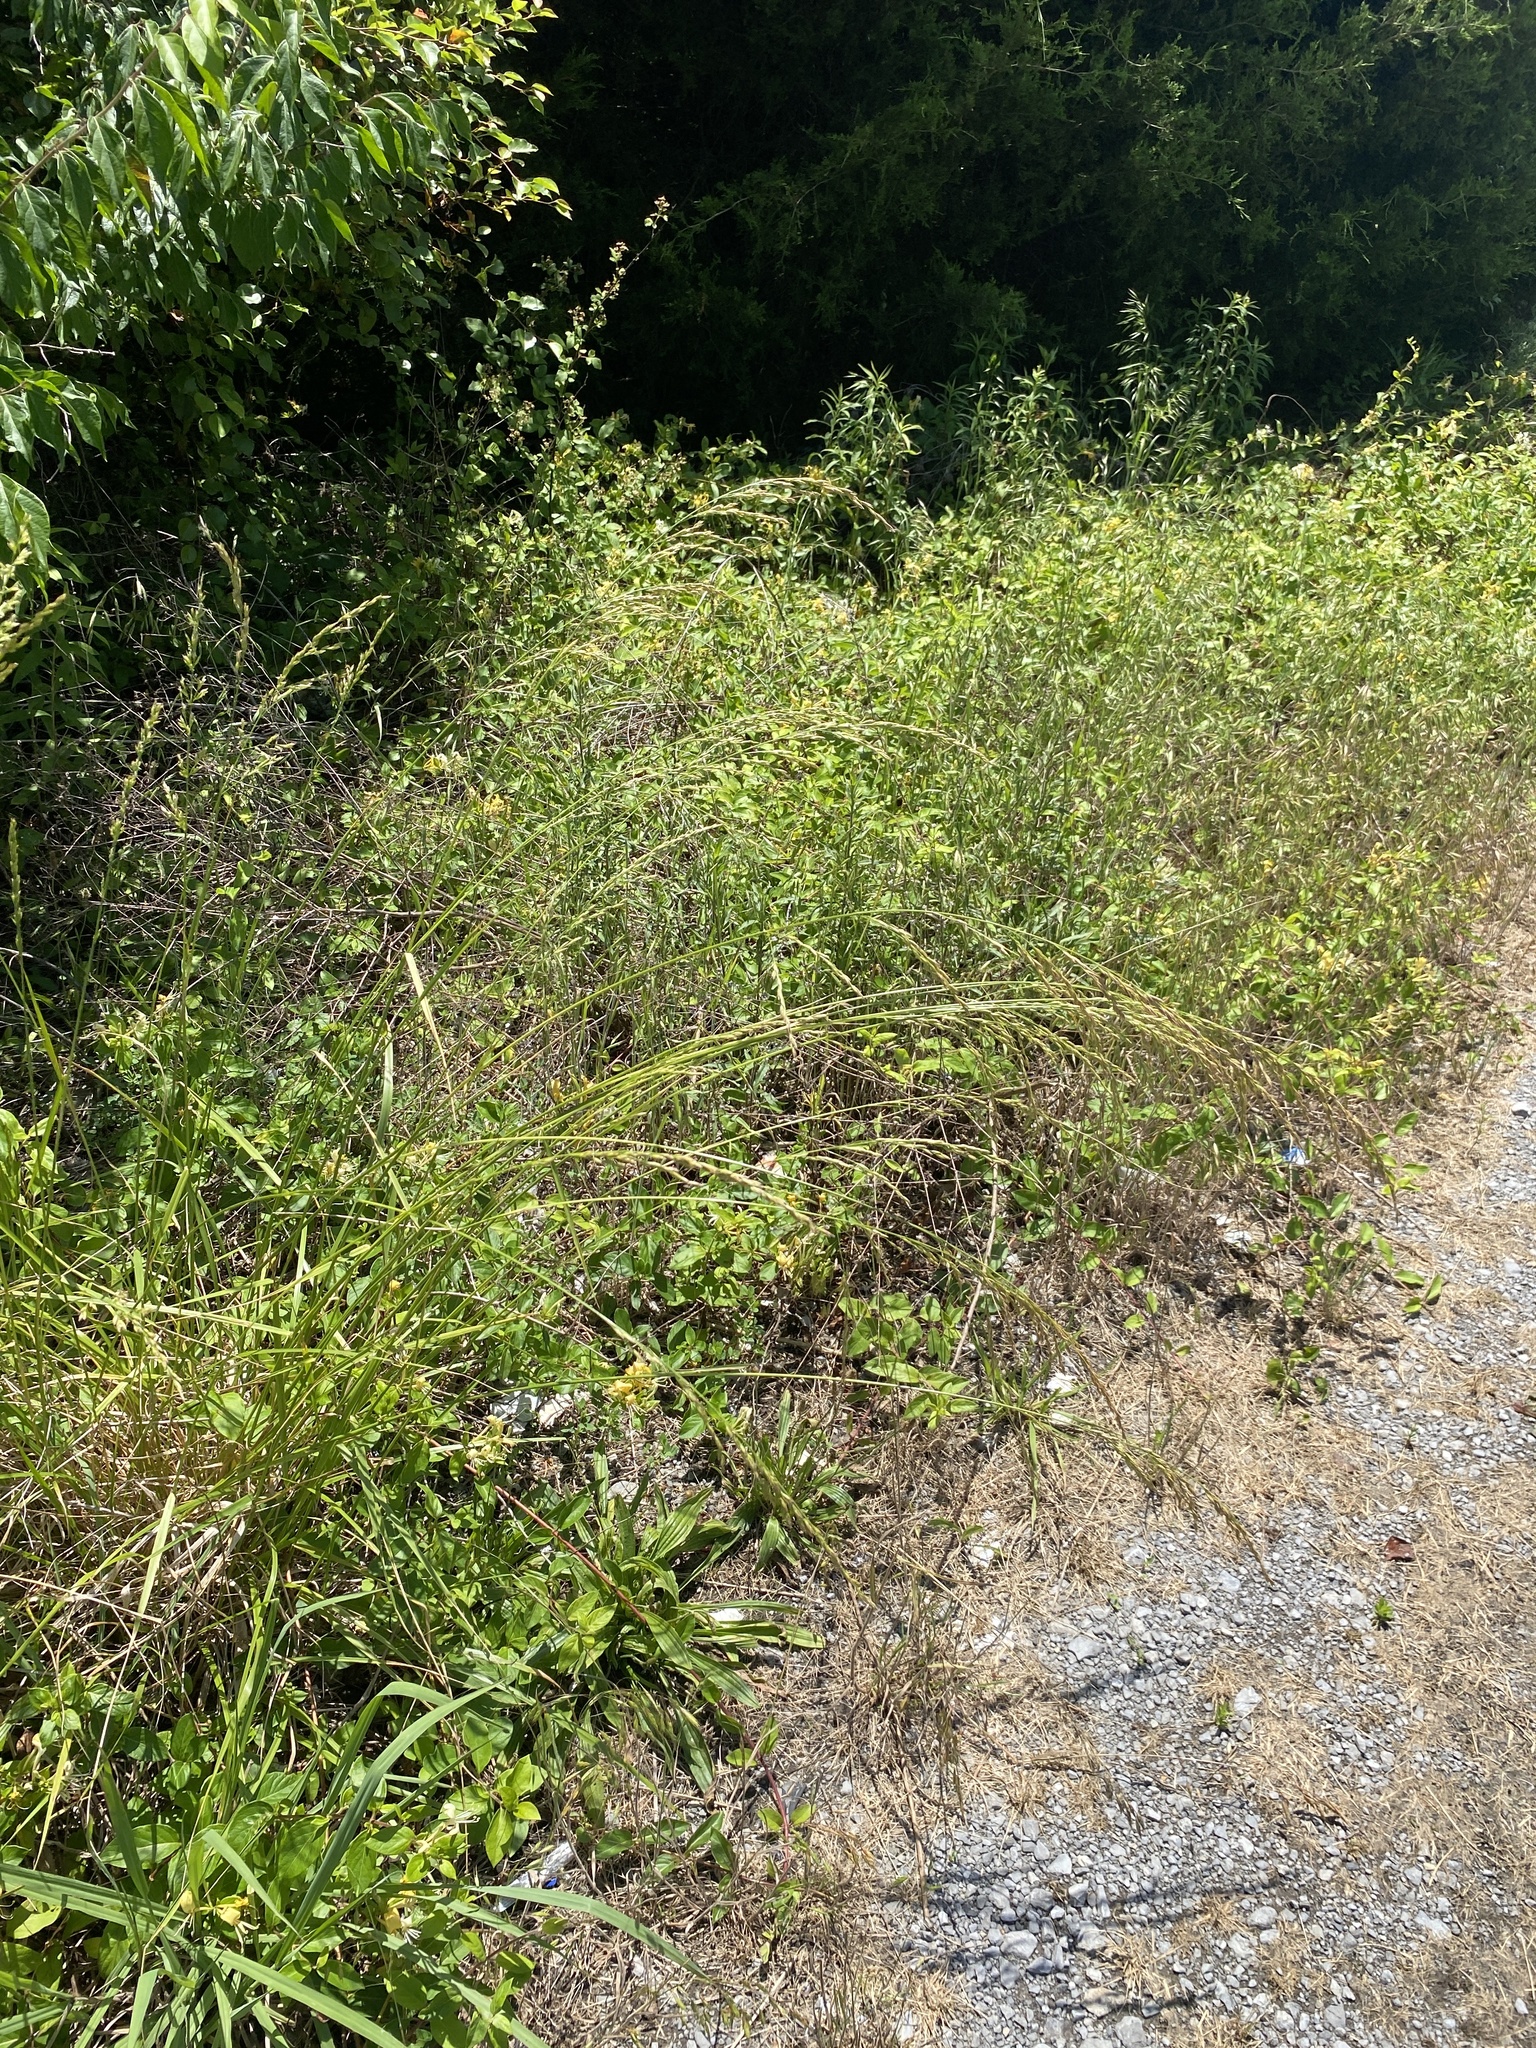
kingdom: Plantae
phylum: Tracheophyta
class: Liliopsida
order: Poales
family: Poaceae
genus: Lolium
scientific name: Lolium arundinaceum
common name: Reed fescue
